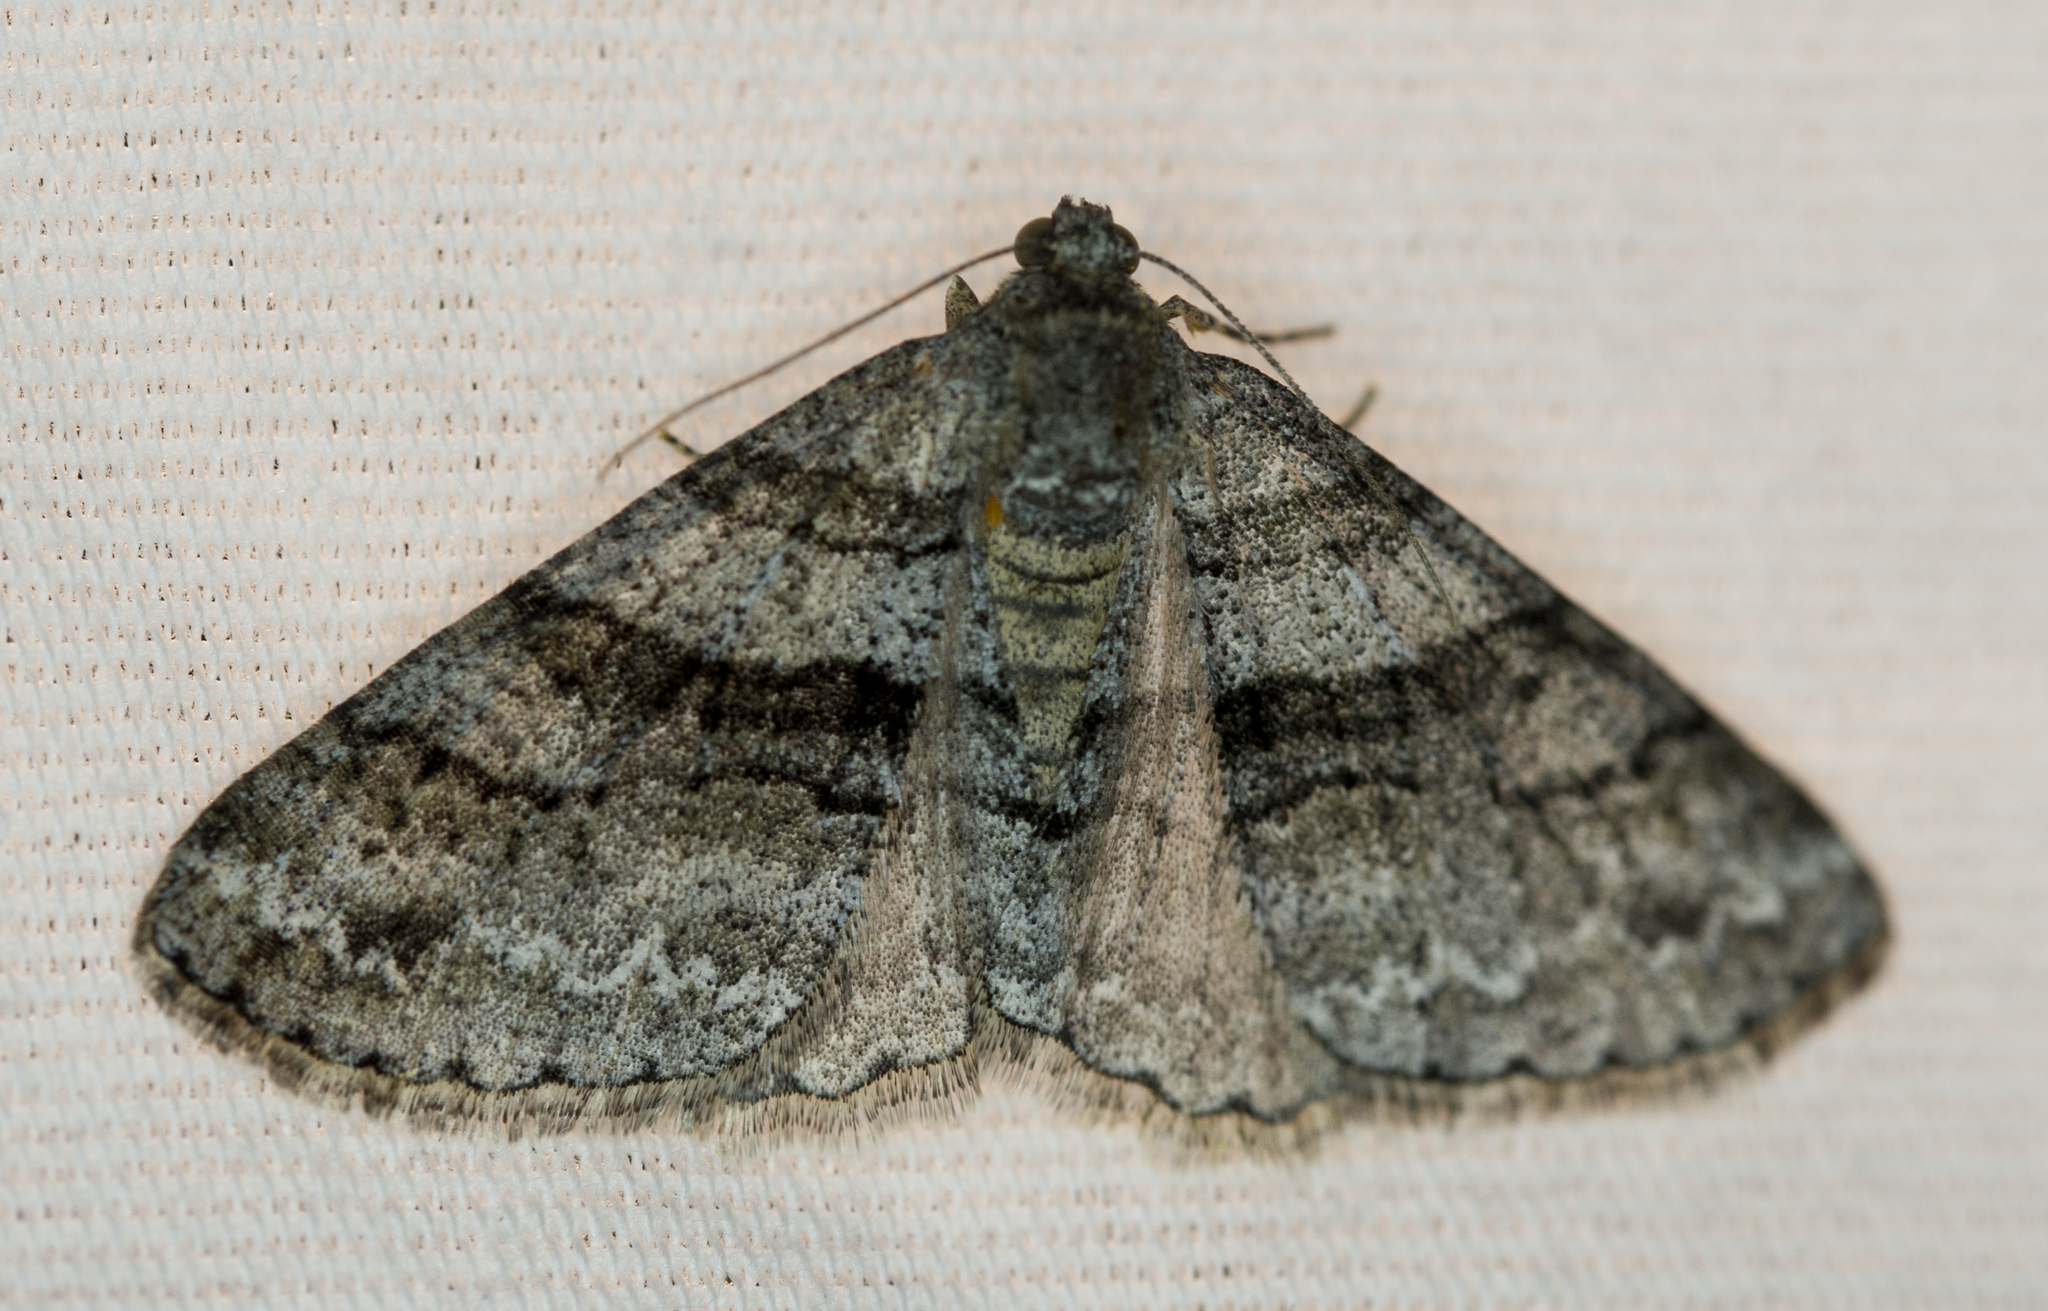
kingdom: Animalia
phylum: Arthropoda
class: Insecta
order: Lepidoptera
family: Geometridae
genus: Prionomelia
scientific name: Prionomelia spododea
